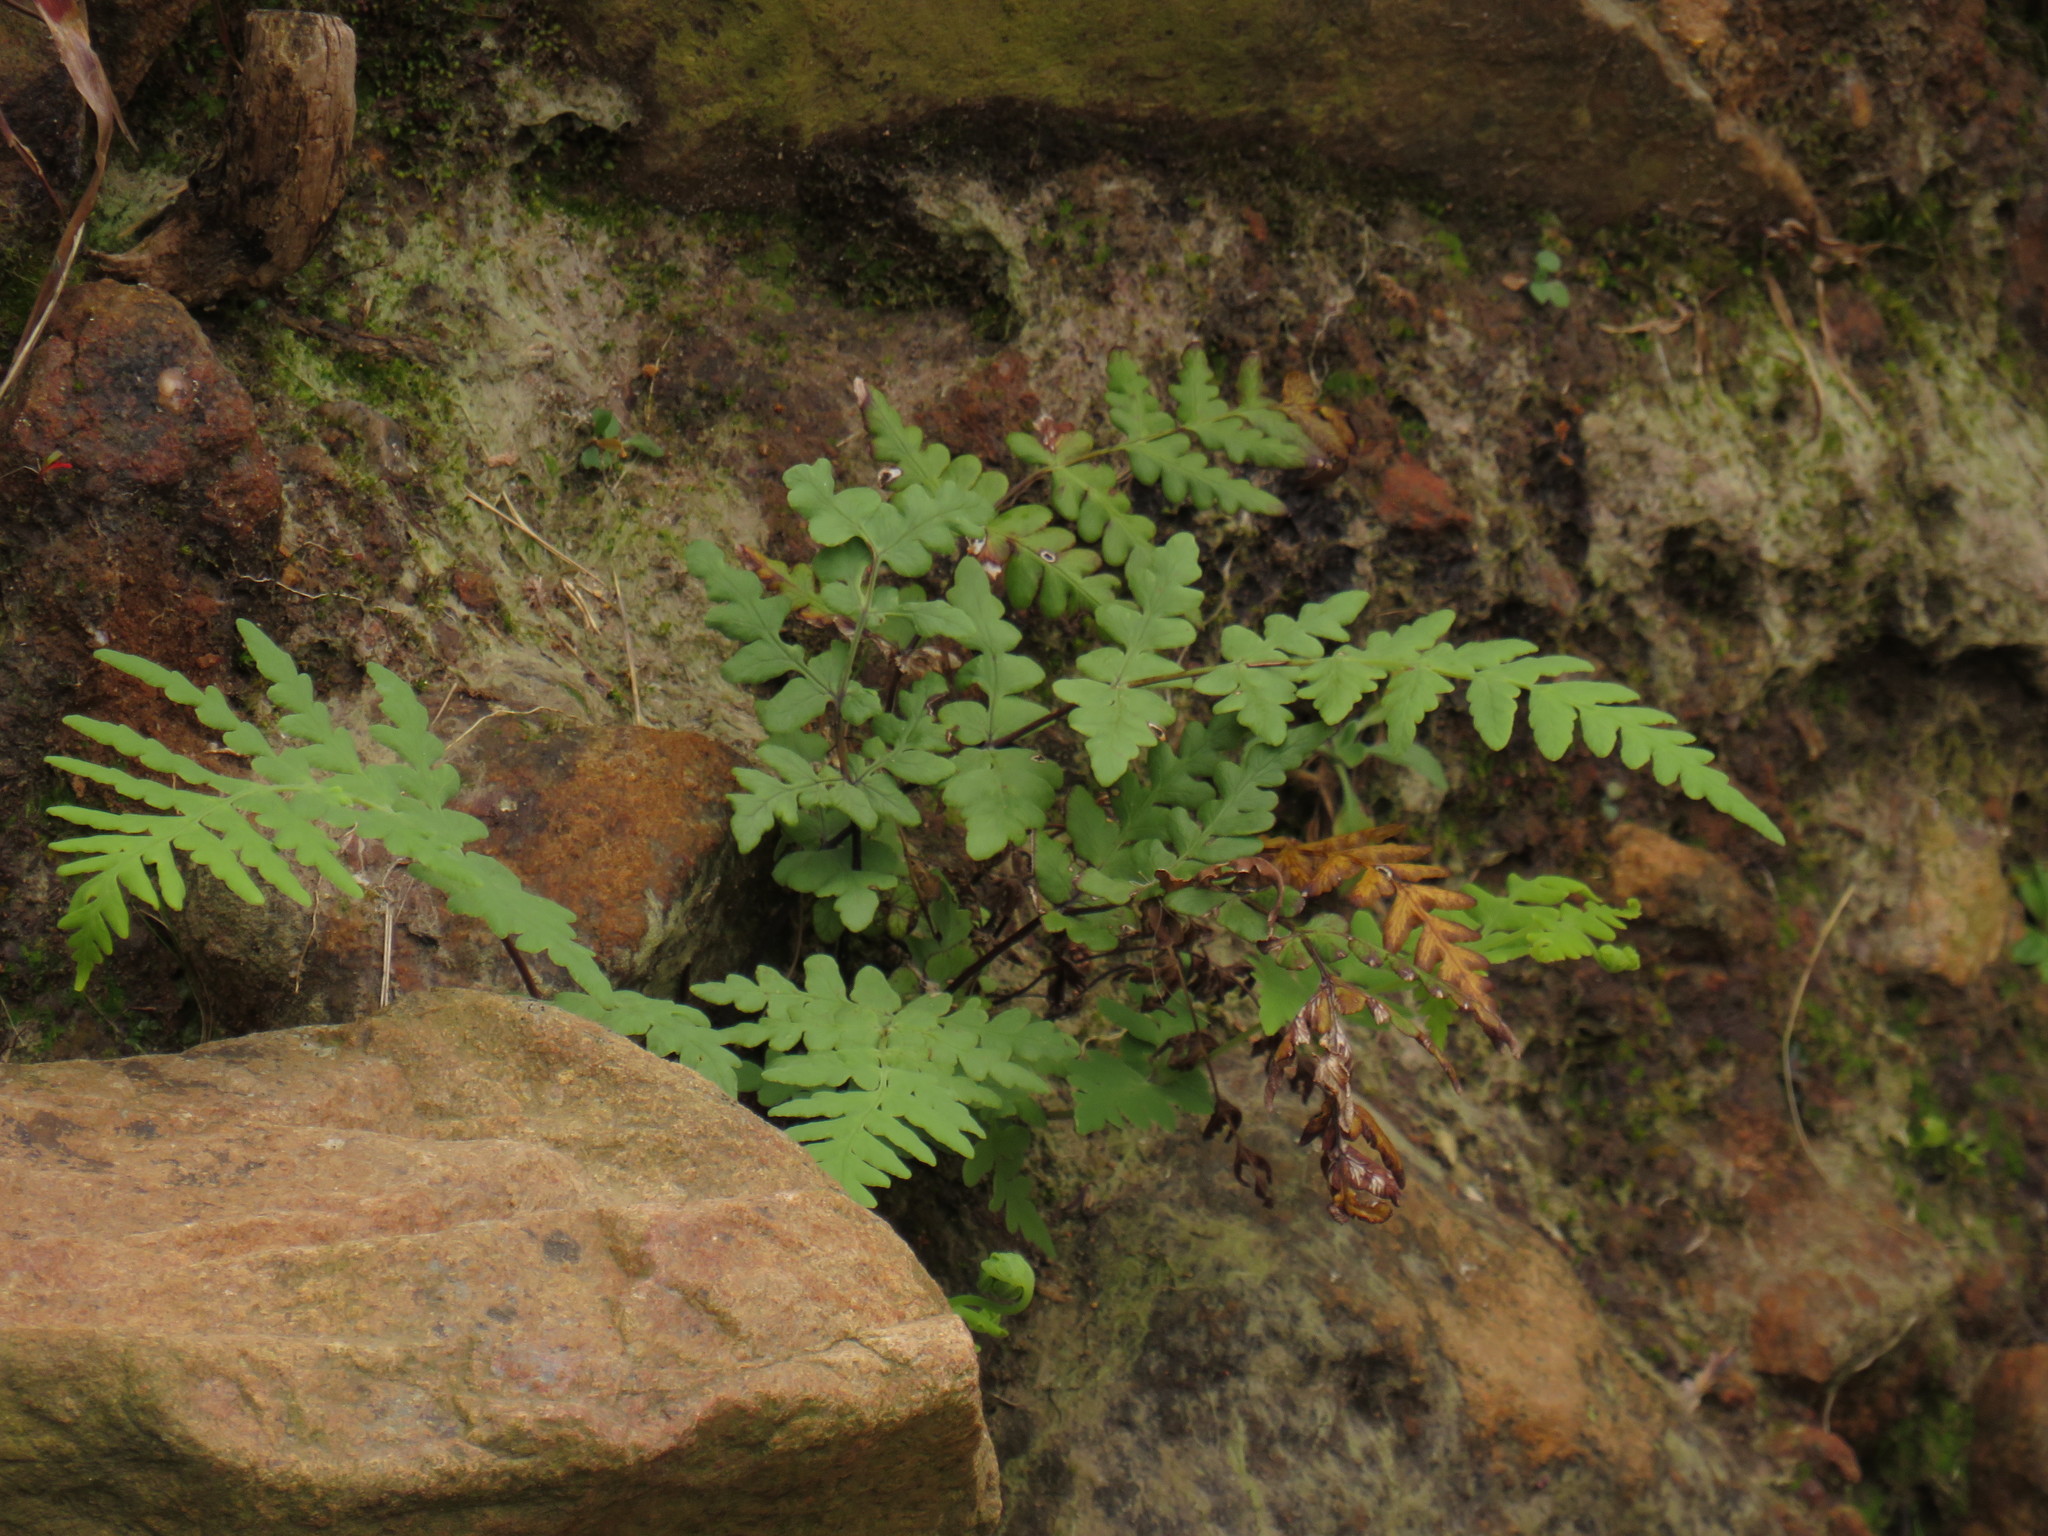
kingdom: Plantae
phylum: Tracheophyta
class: Polypodiopsida
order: Polypodiales
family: Dennstaedtiaceae
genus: Histiopteris
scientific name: Histiopteris incisa
